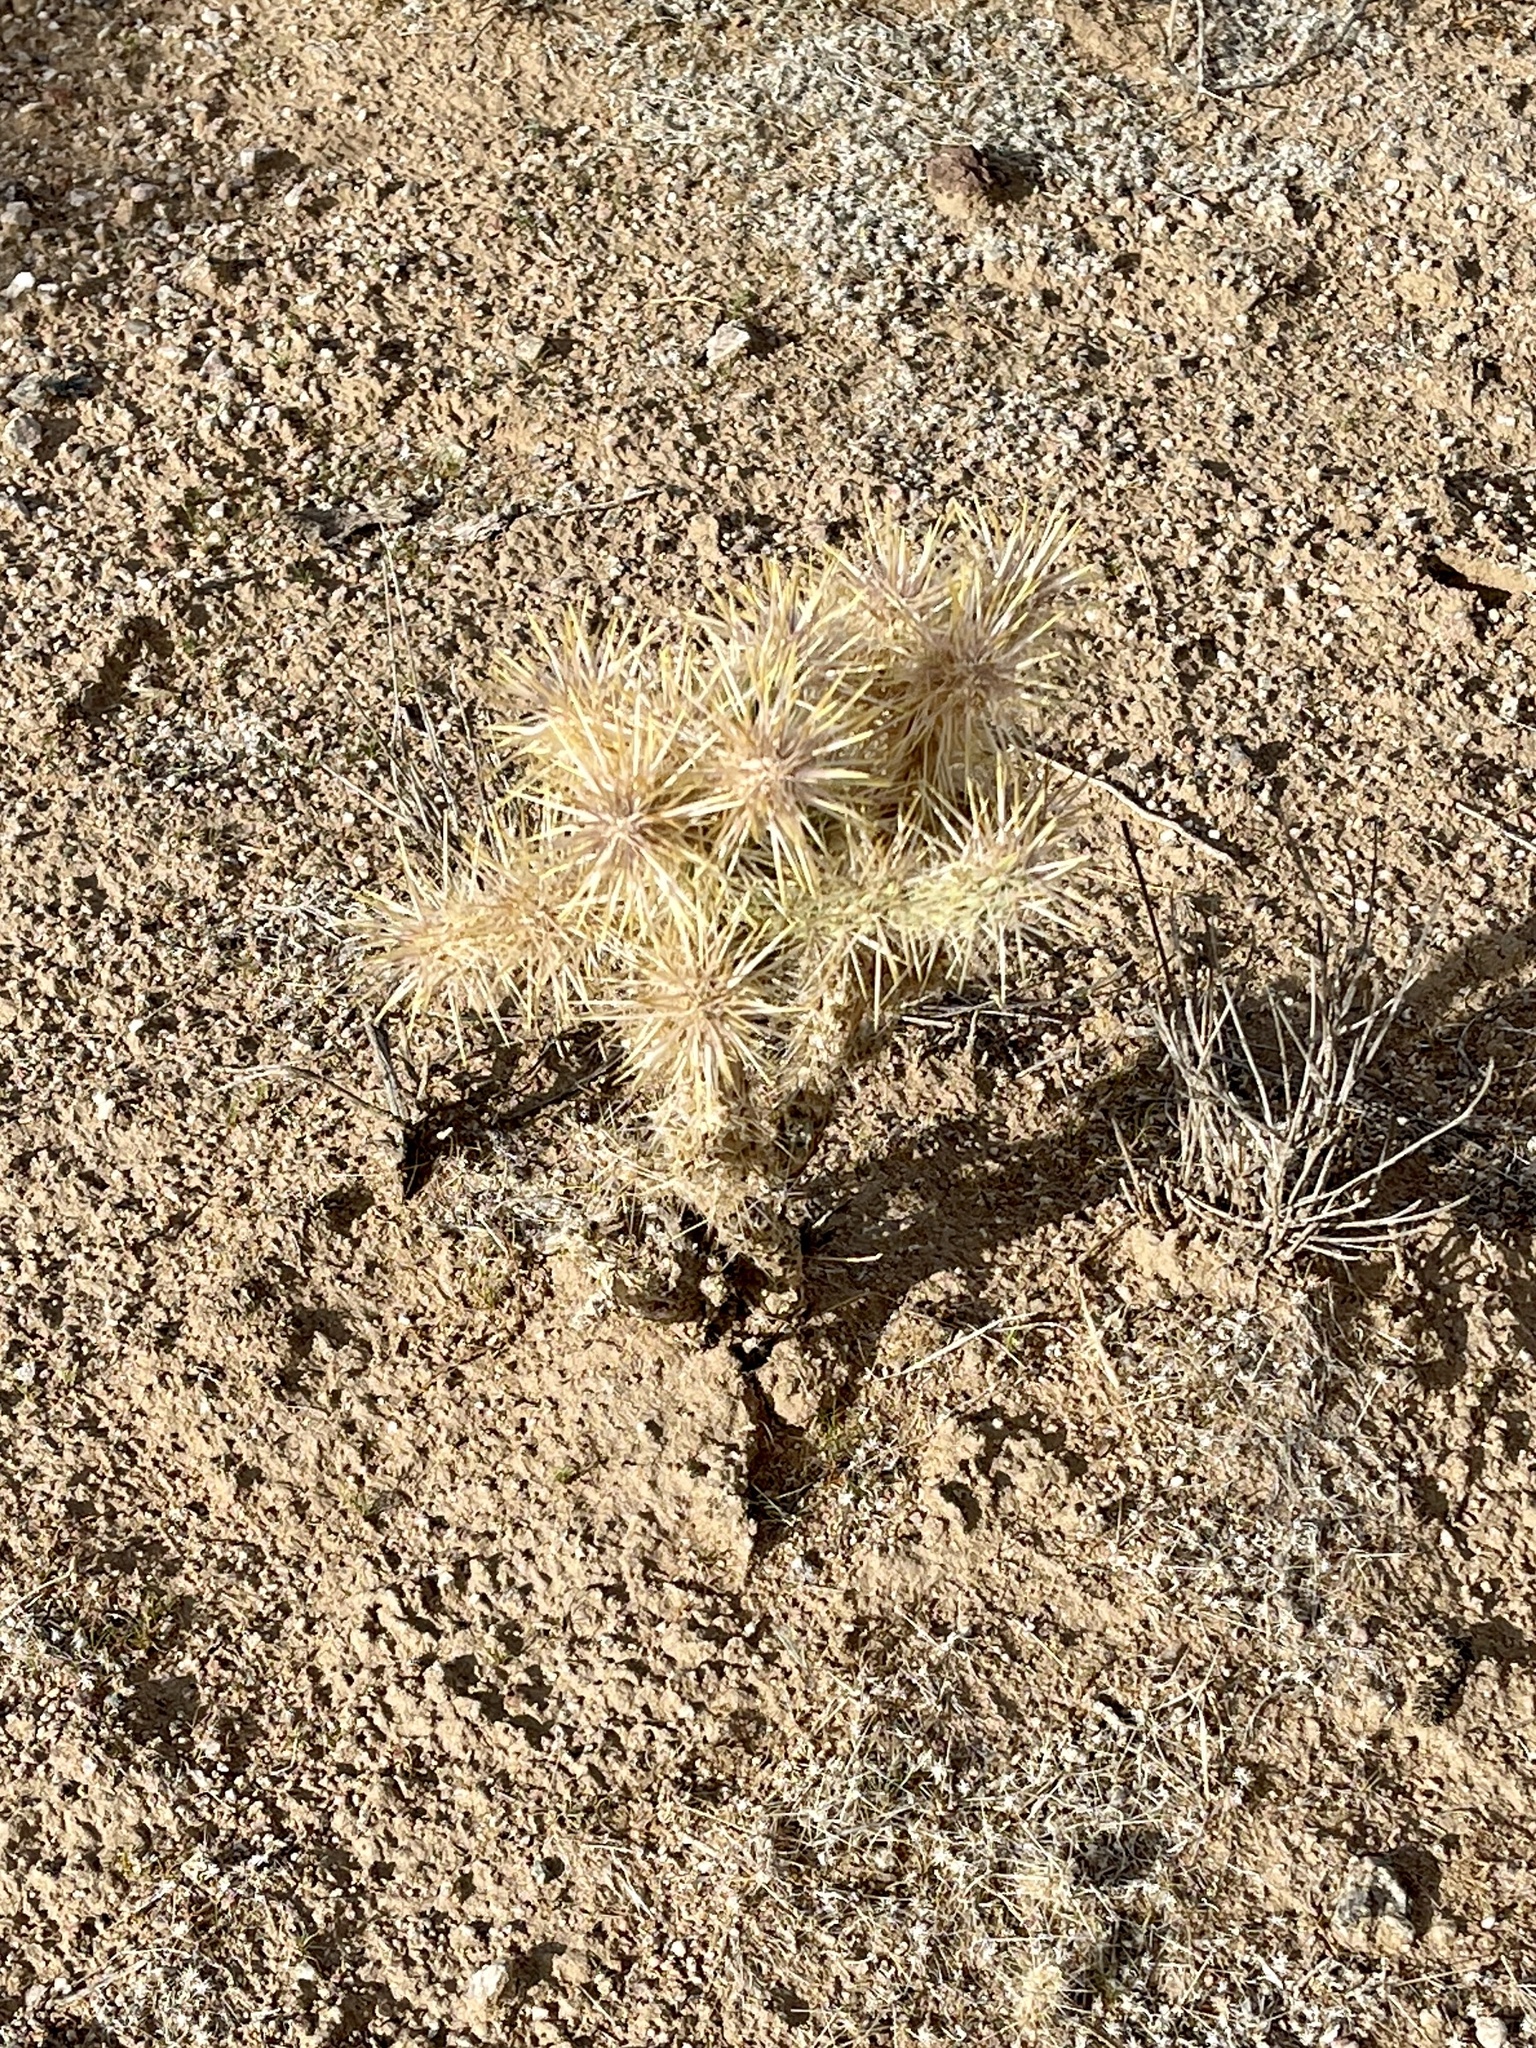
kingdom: Plantae
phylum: Tracheophyta
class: Magnoliopsida
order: Caryophyllales
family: Cactaceae
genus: Cylindropuntia
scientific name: Cylindropuntia echinocarpa
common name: Ground cholla
